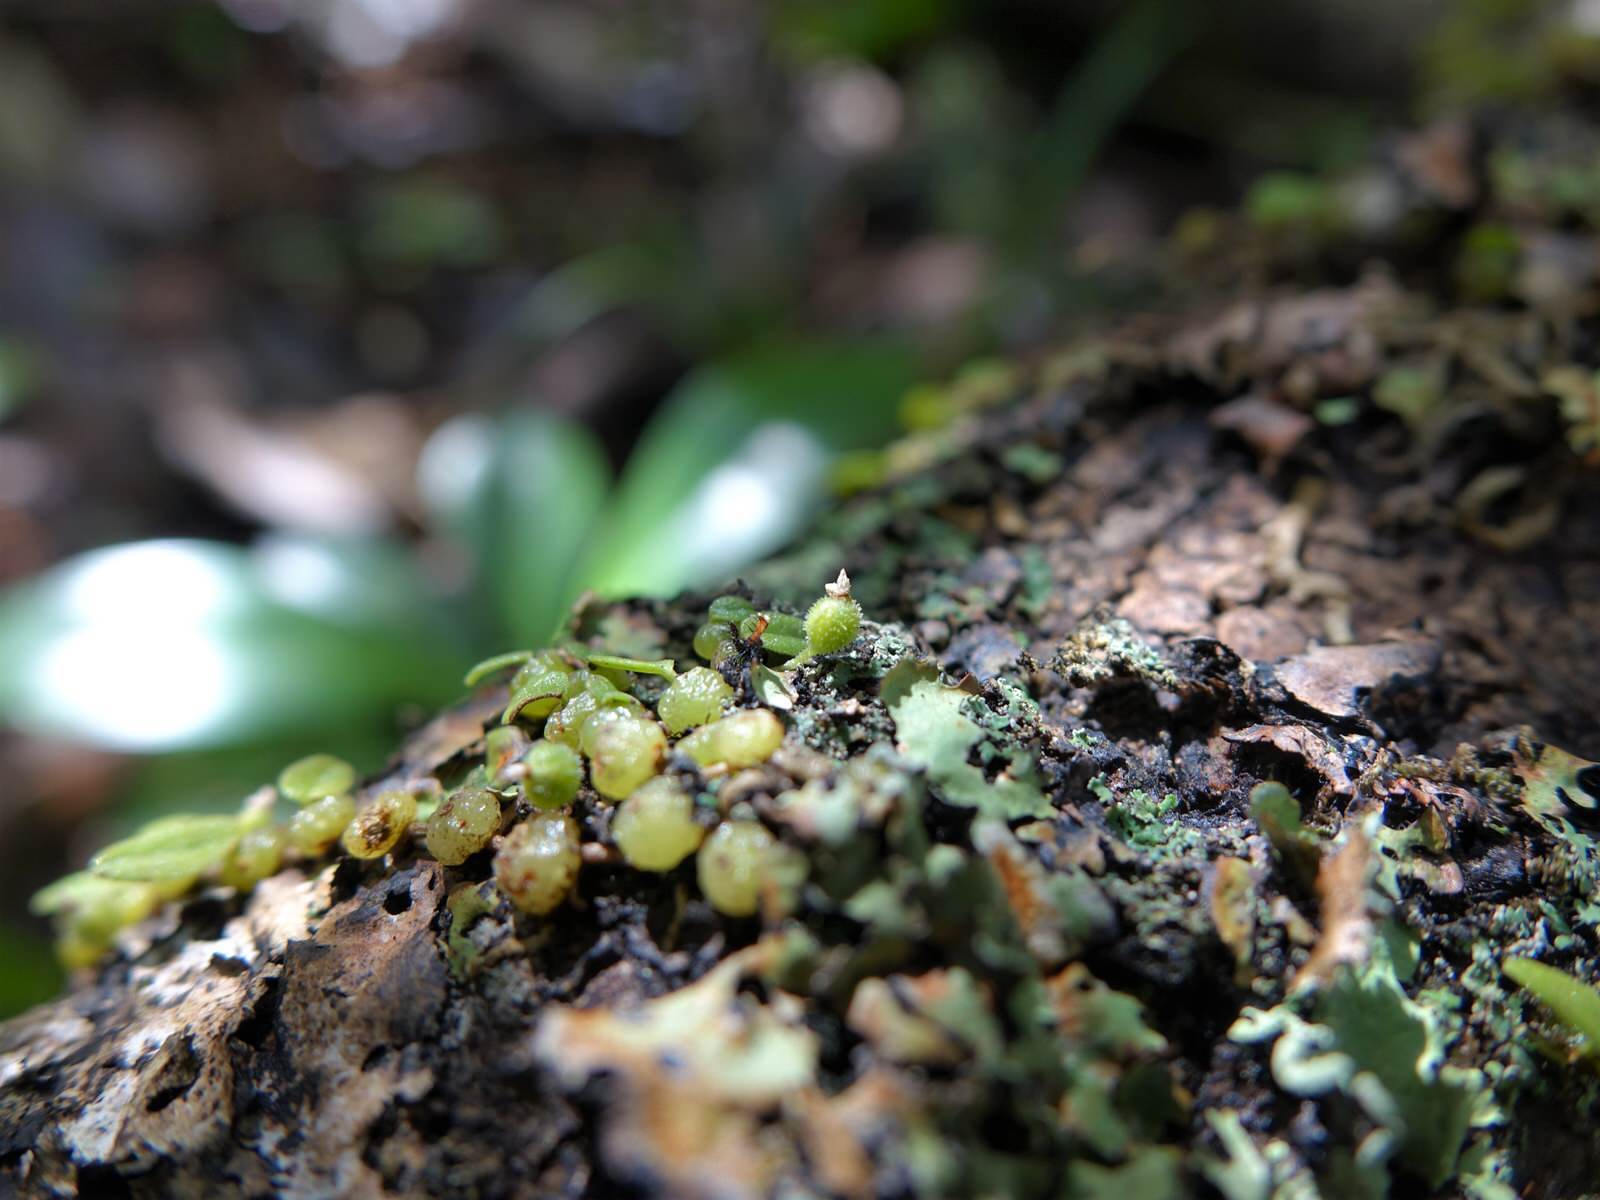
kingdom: Plantae
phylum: Tracheophyta
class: Liliopsida
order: Asparagales
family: Orchidaceae
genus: Bulbophyllum
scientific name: Bulbophyllum pygmaeum
